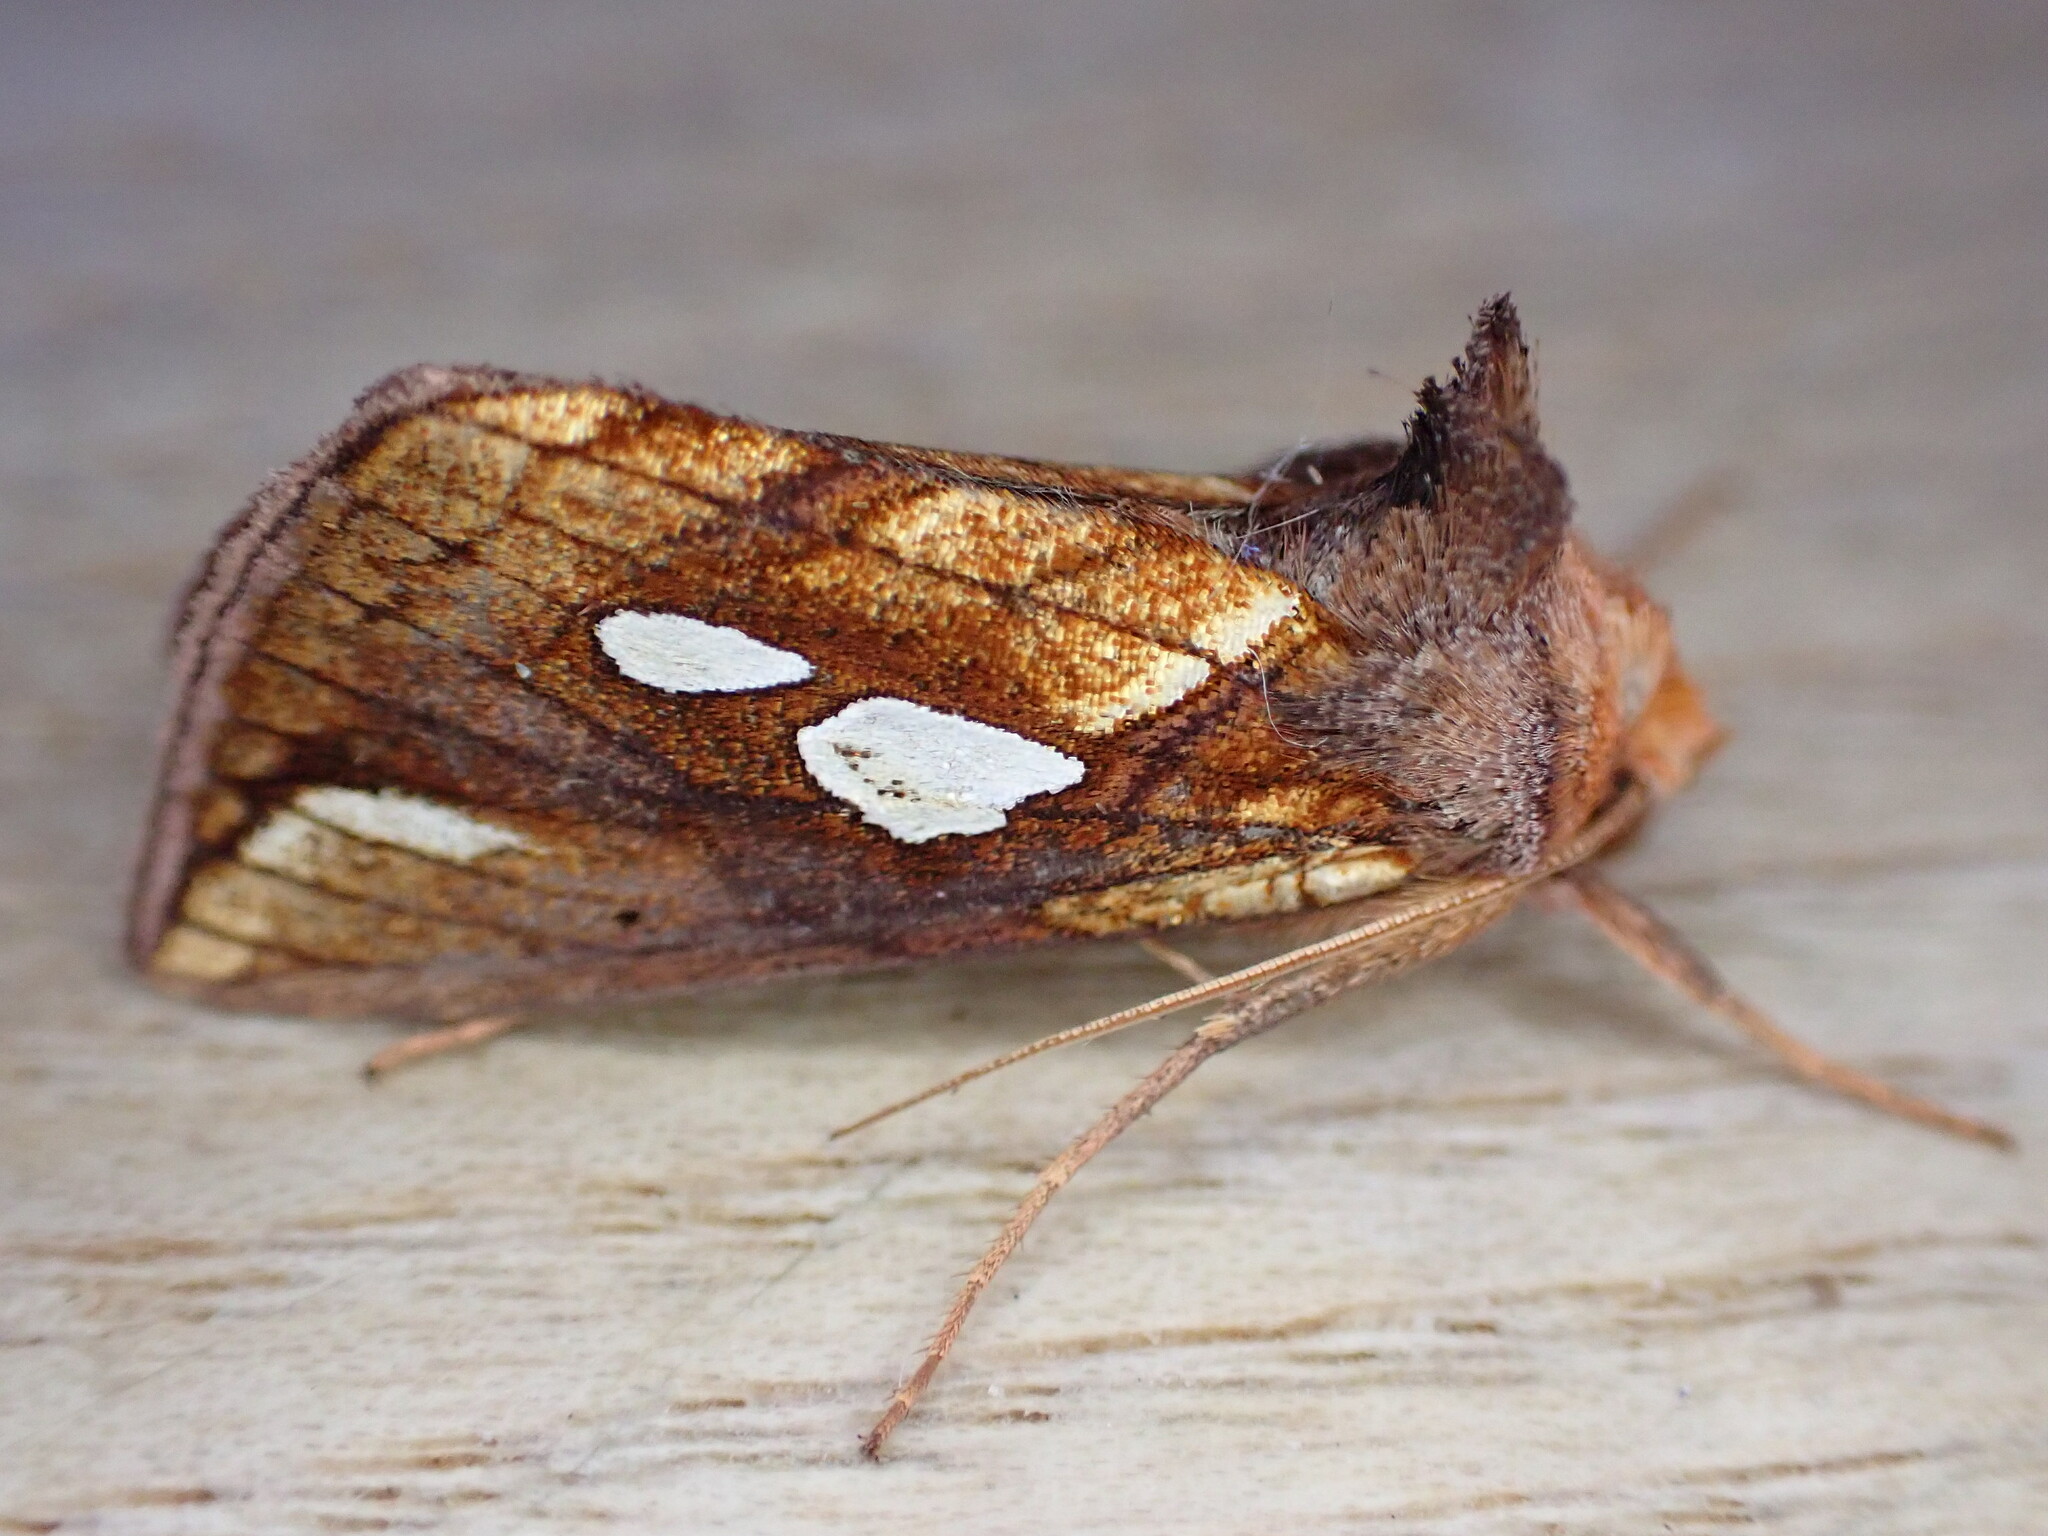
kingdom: Animalia
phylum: Arthropoda
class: Insecta
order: Lepidoptera
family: Noctuidae
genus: Plusia
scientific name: Plusia festucae
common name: Gold spot
